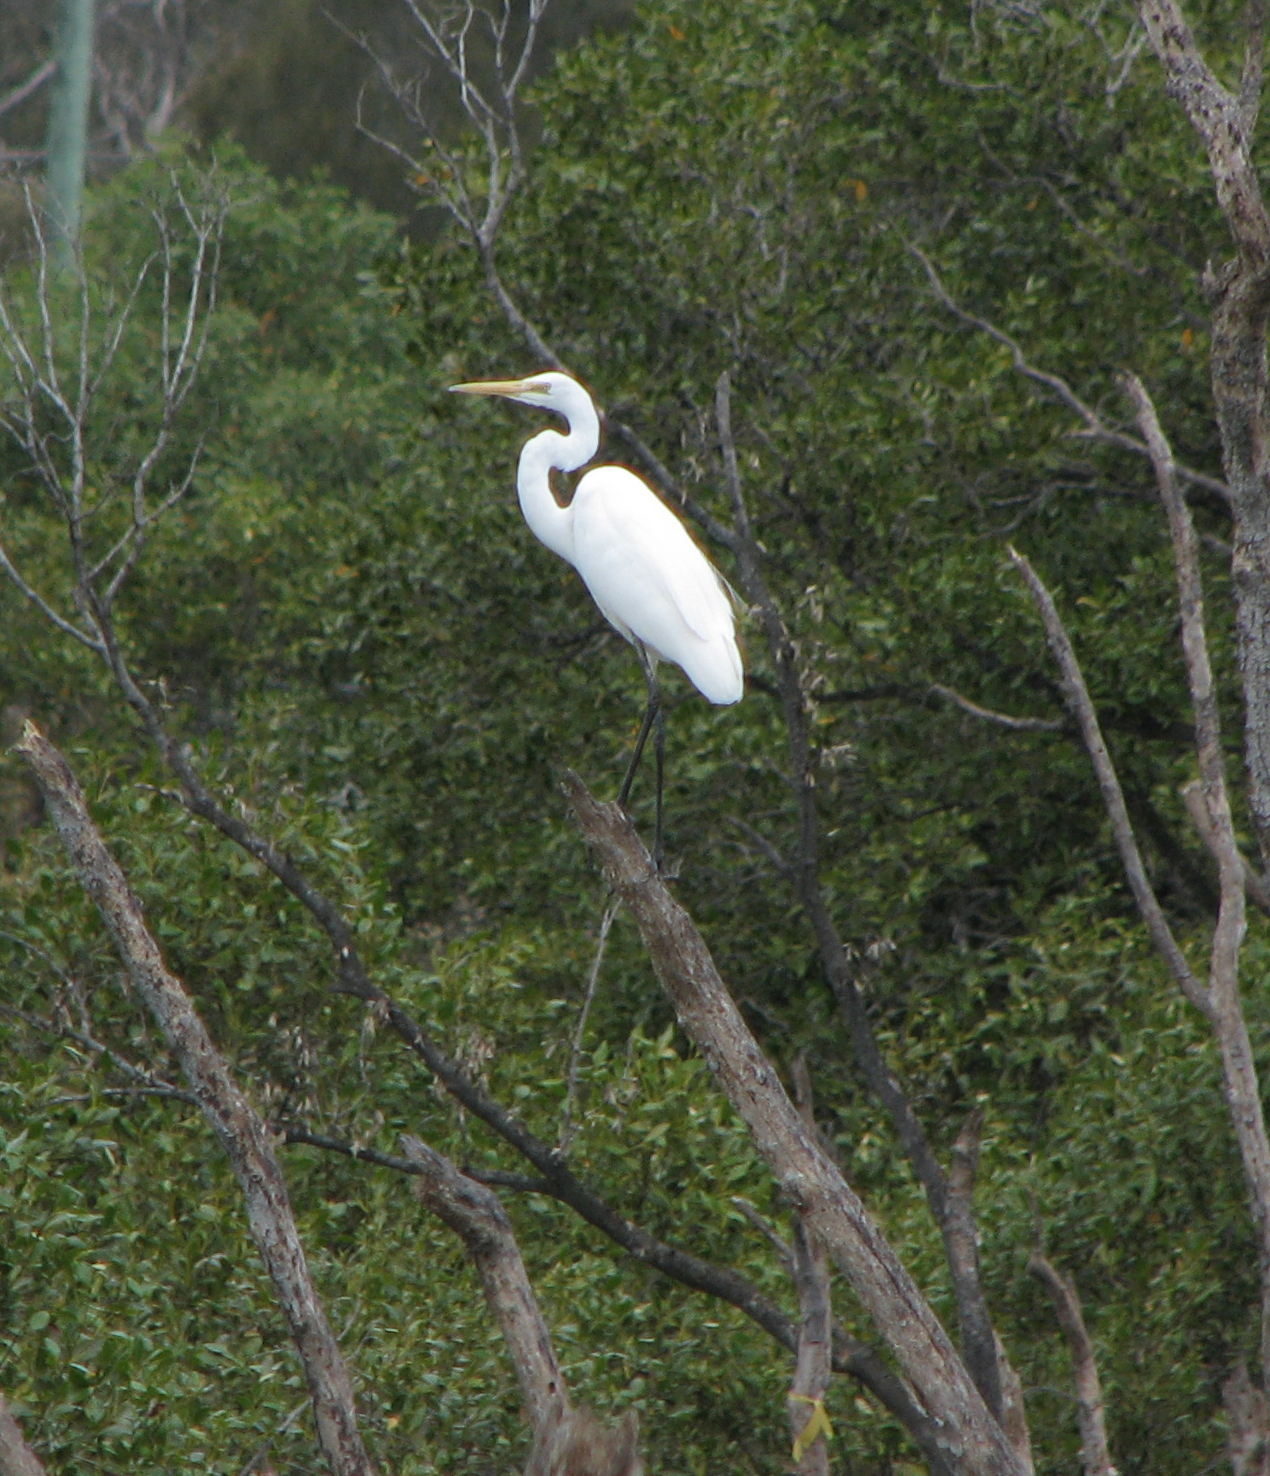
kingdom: Animalia
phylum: Chordata
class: Aves
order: Pelecaniformes
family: Ardeidae
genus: Ardea
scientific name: Ardea alba
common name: Great egret
